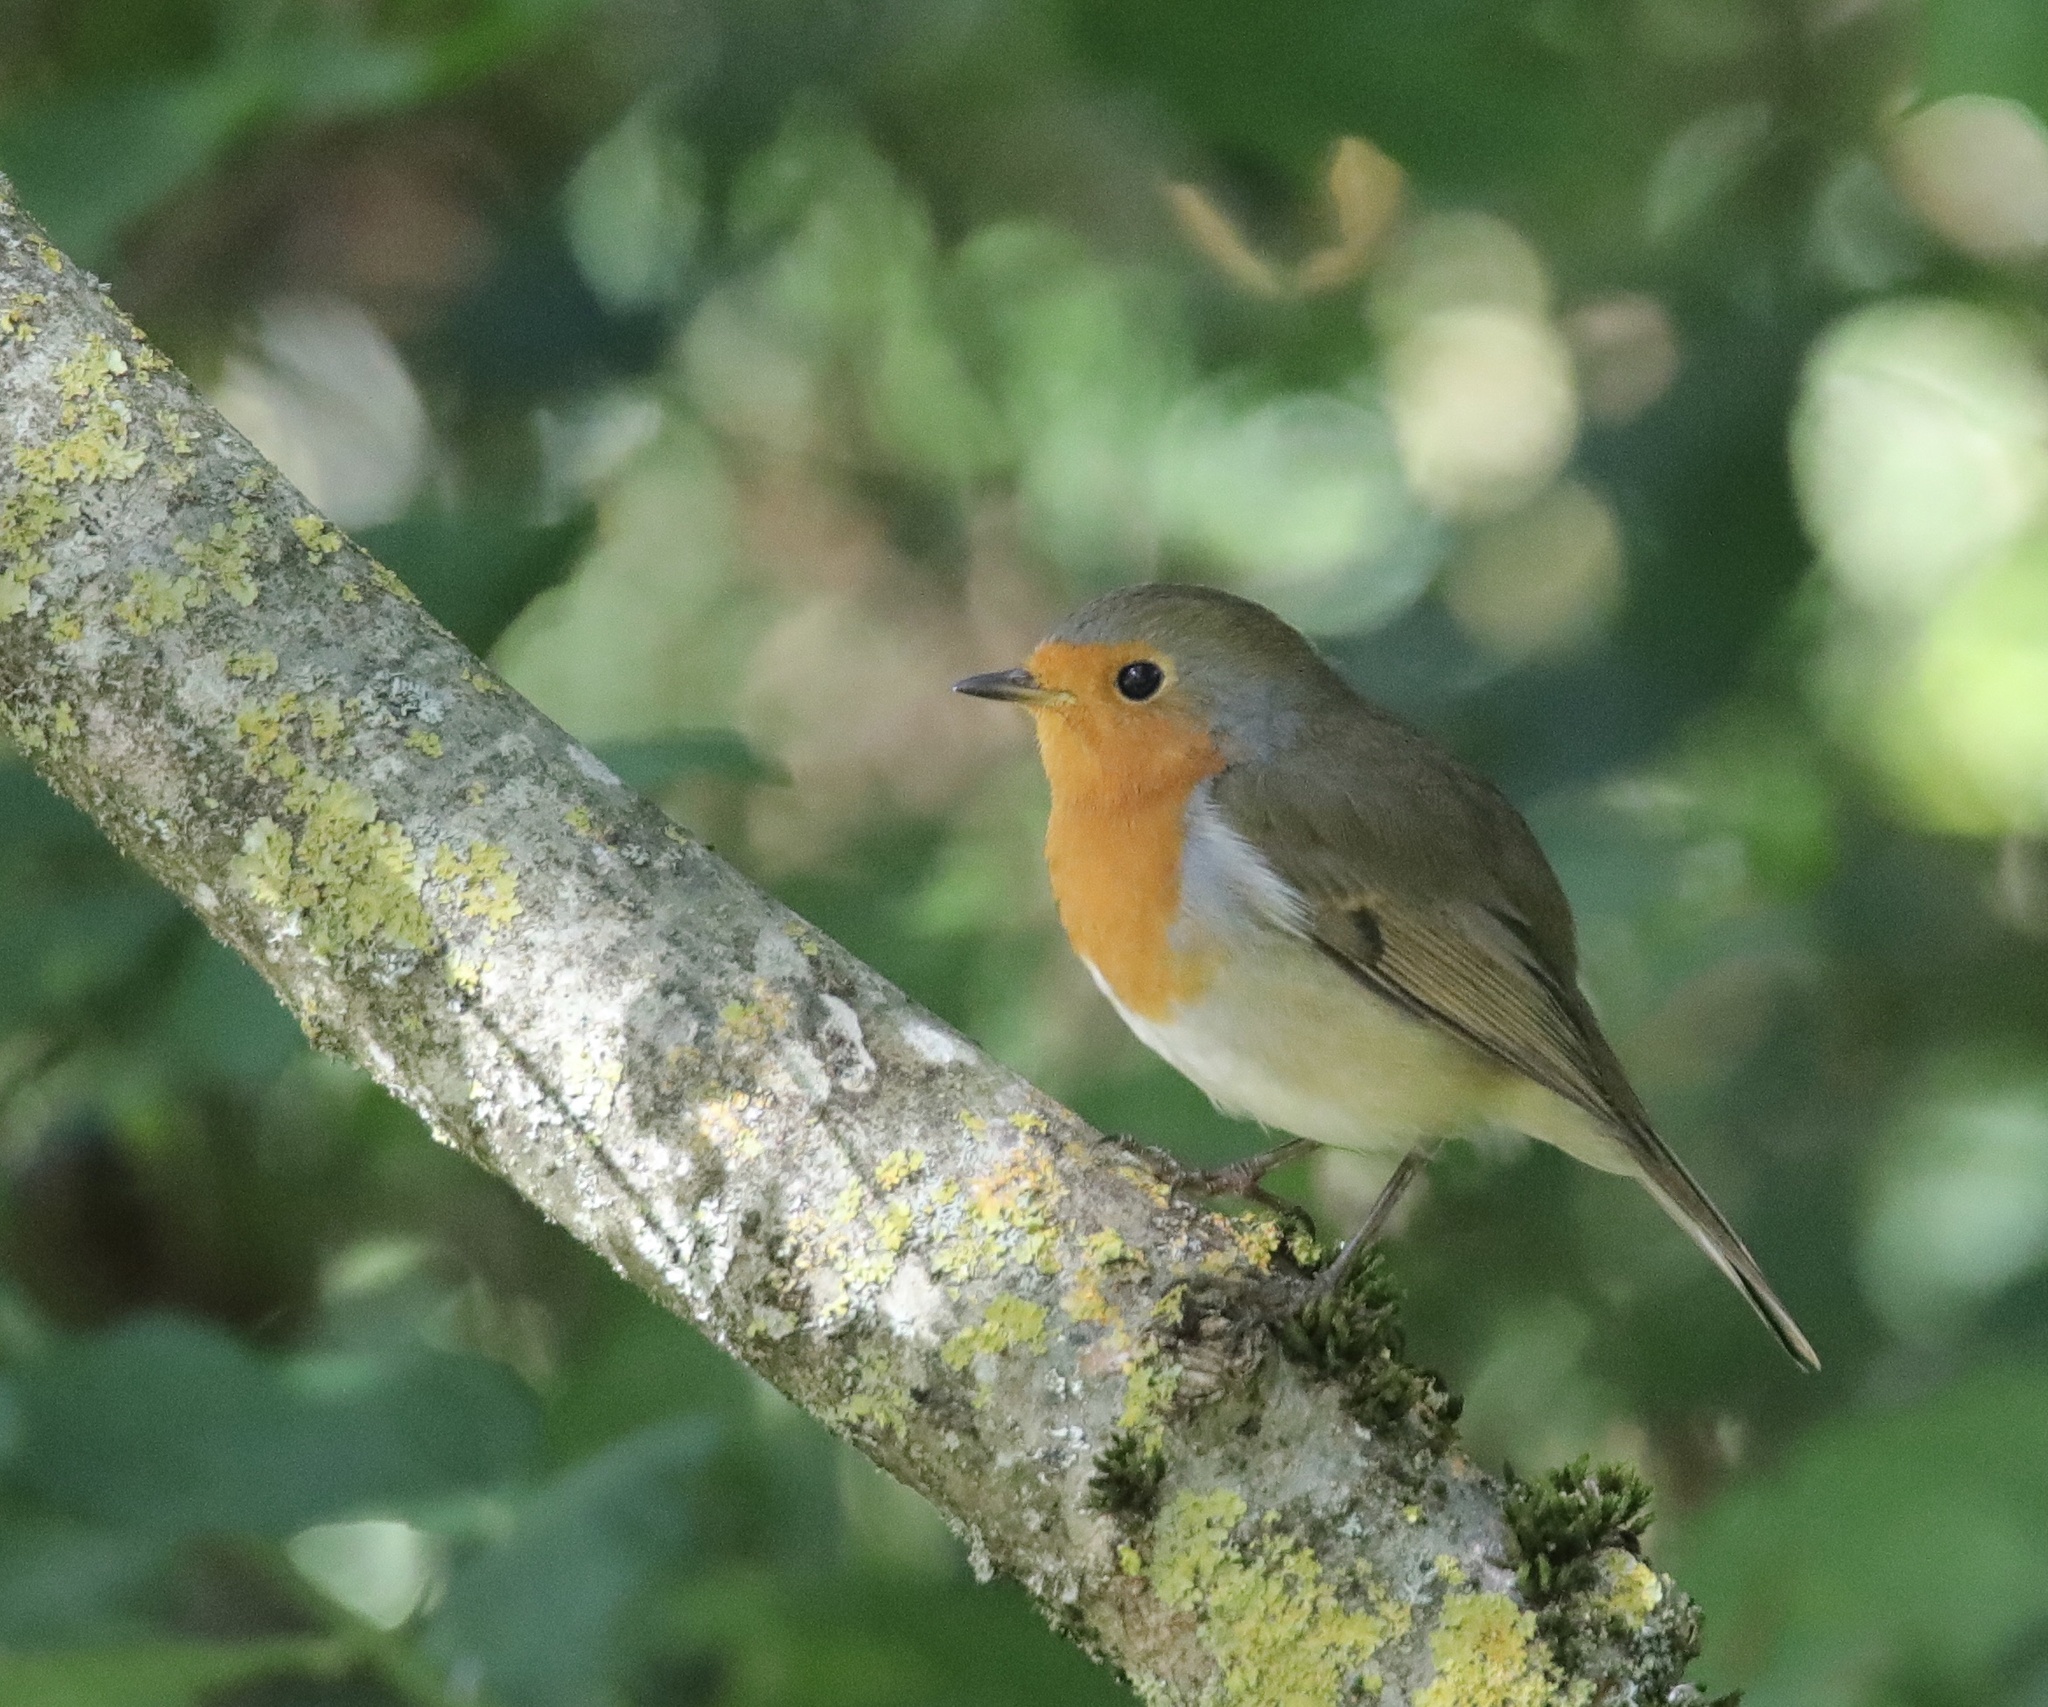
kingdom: Animalia
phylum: Chordata
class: Aves
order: Passeriformes
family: Muscicapidae
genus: Erithacus
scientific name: Erithacus rubecula
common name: European robin
